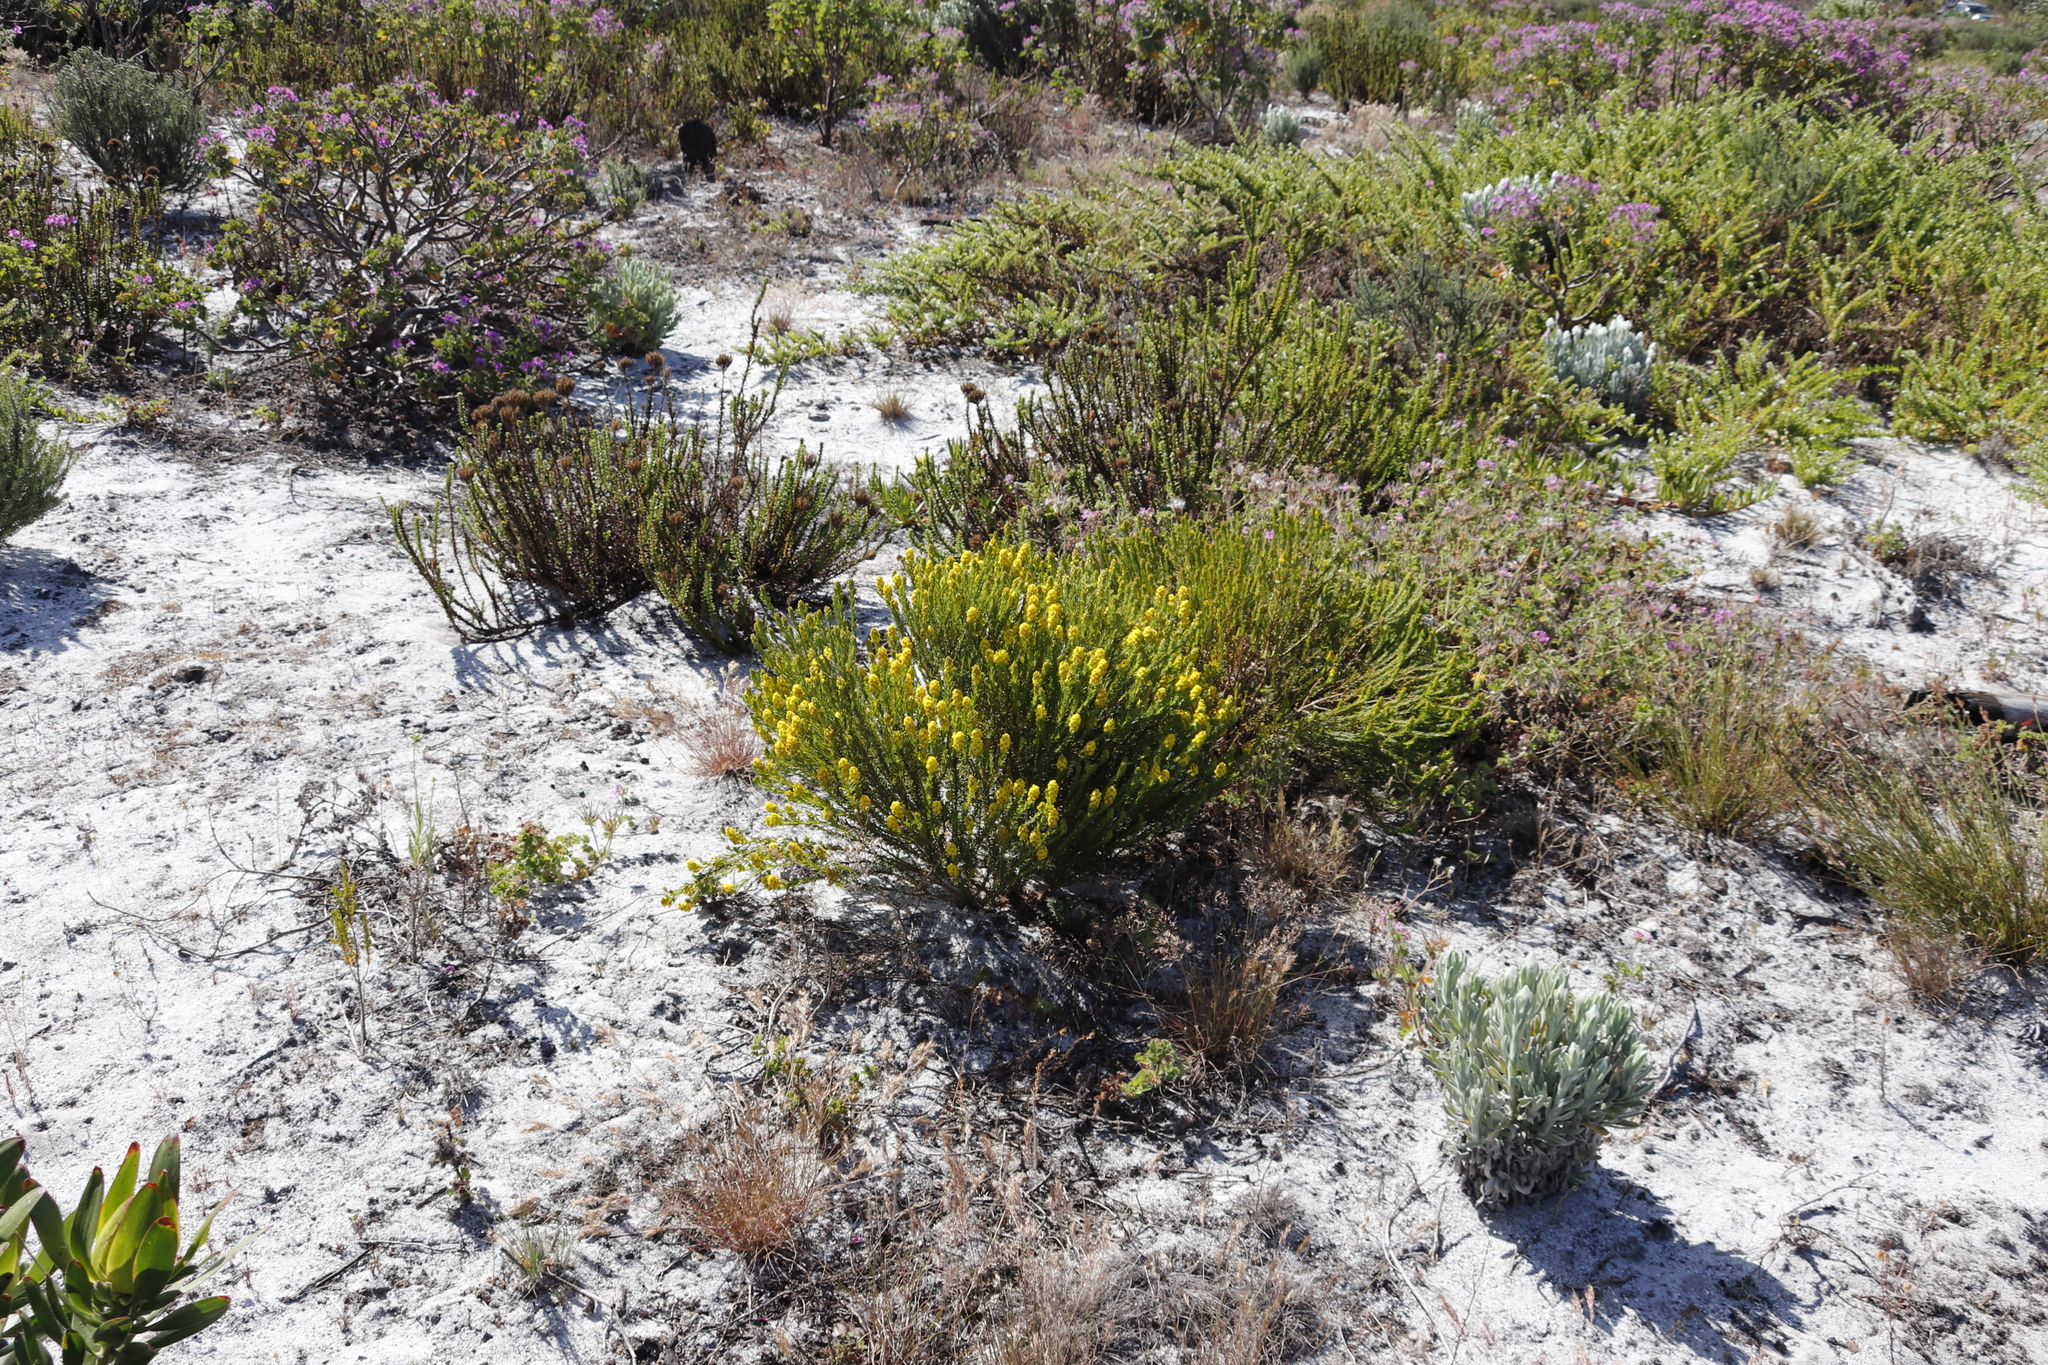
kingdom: Plantae
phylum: Tracheophyta
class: Magnoliopsida
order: Fabales
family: Fabaceae
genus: Aspalathus
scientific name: Aspalathus callosa
